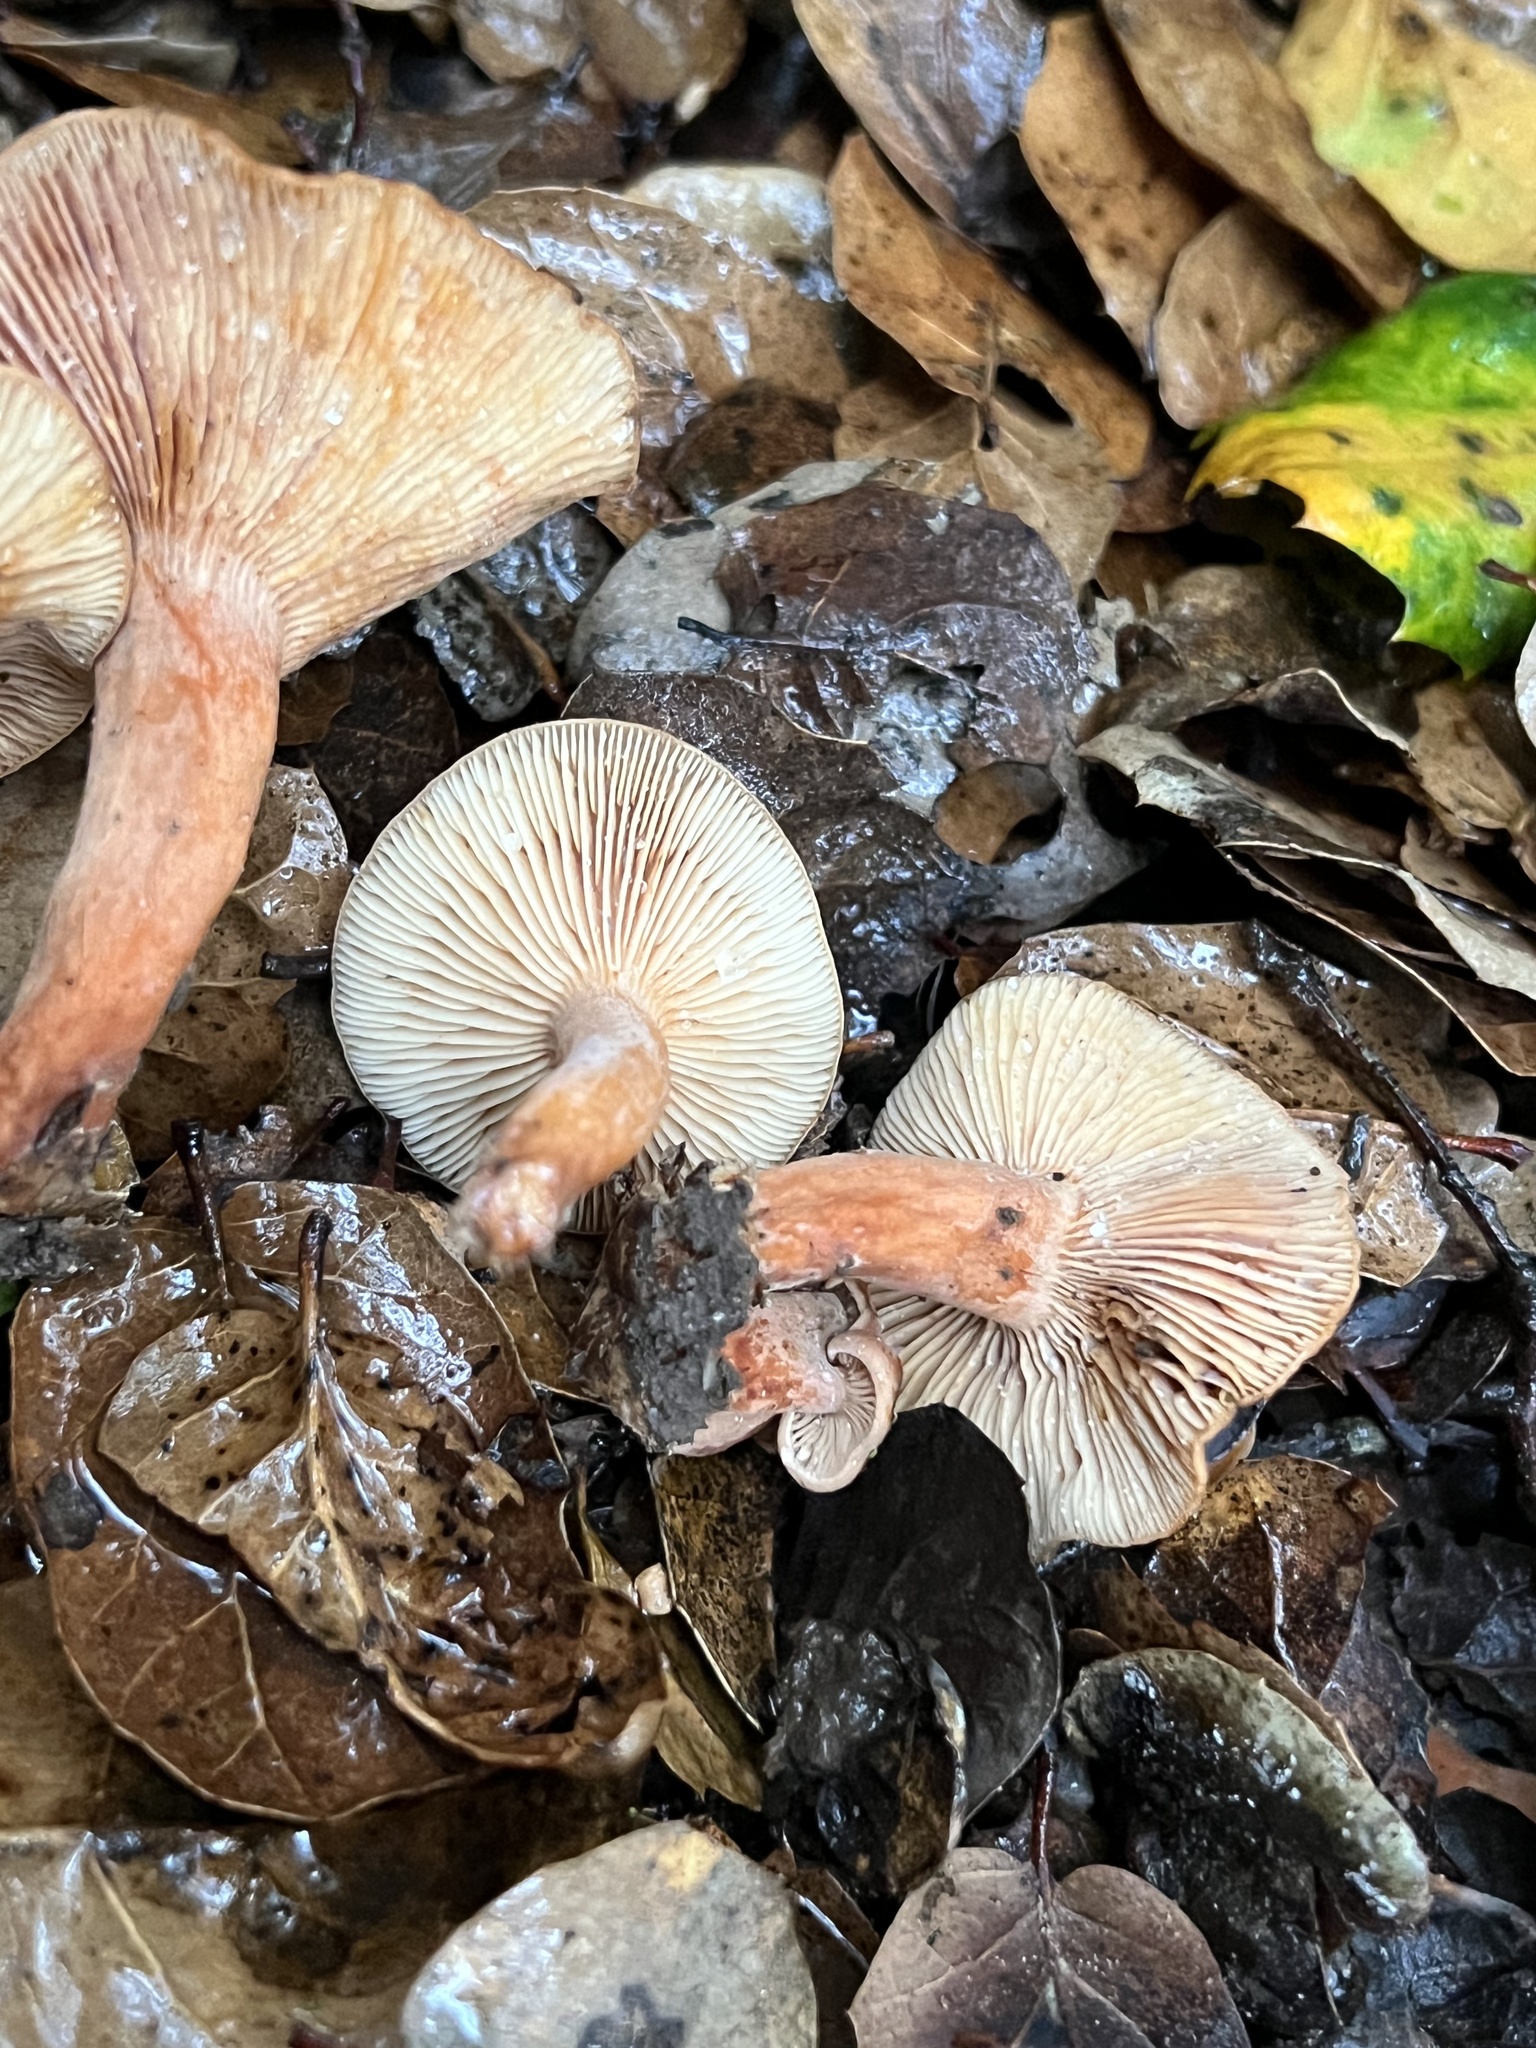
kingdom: Fungi
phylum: Basidiomycota
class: Agaricomycetes
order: Russulales
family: Russulaceae
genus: Lactarius
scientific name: Lactarius rubidus
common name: Candy cap
